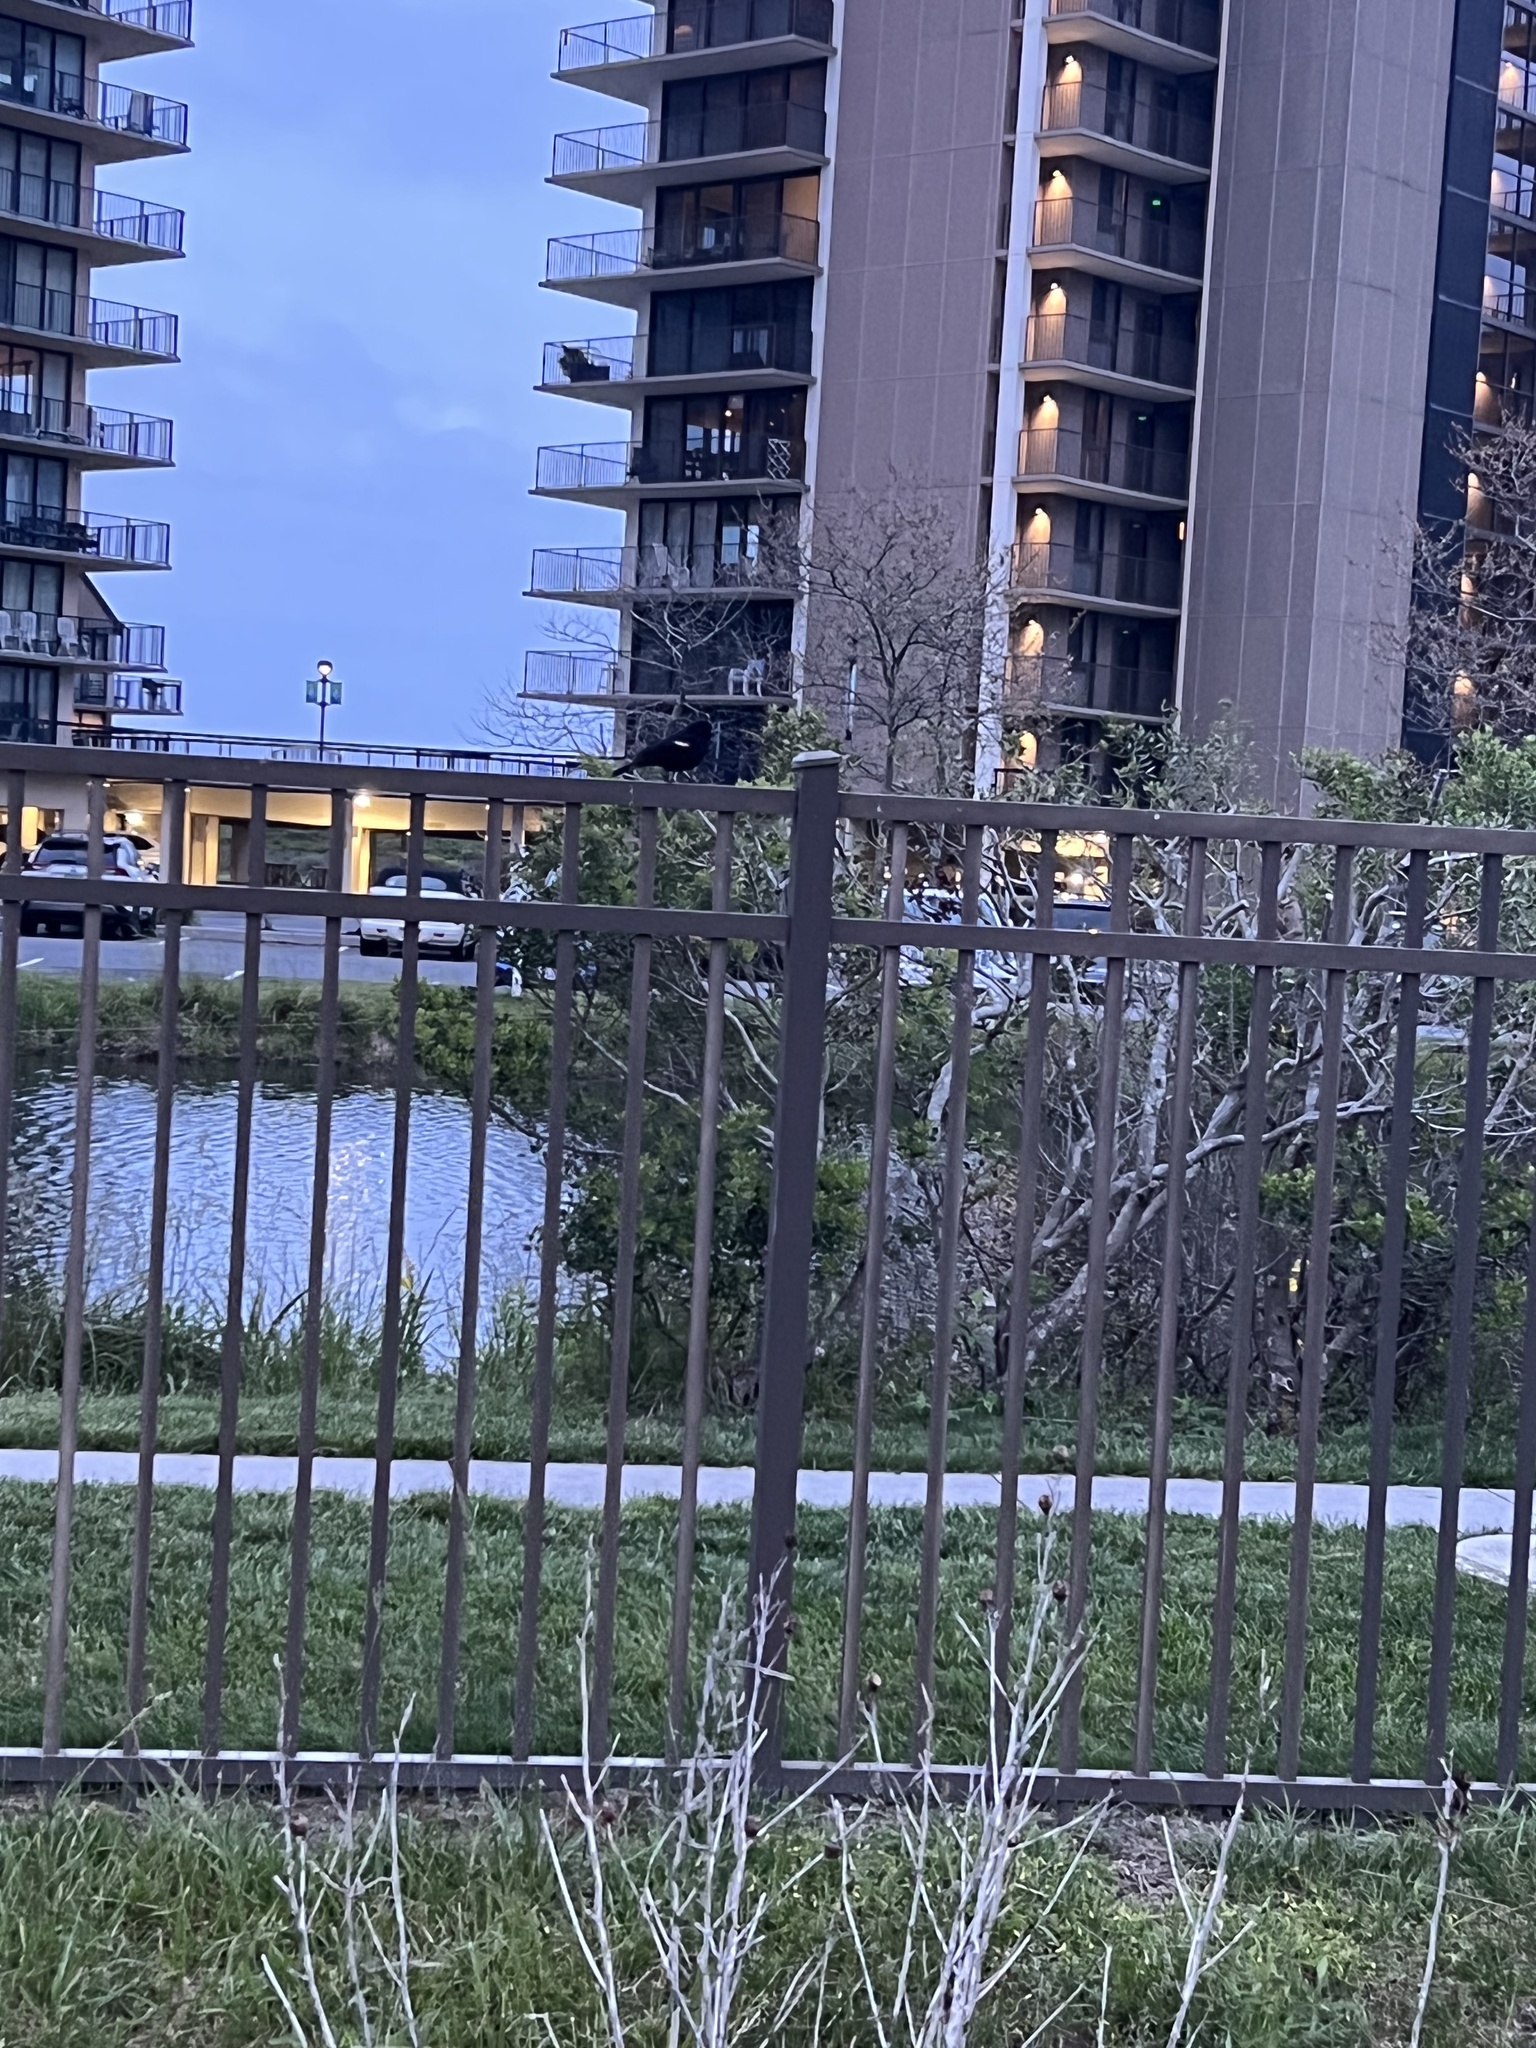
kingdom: Animalia
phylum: Chordata
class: Aves
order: Passeriformes
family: Icteridae
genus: Agelaius
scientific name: Agelaius phoeniceus
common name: Red-winged blackbird
